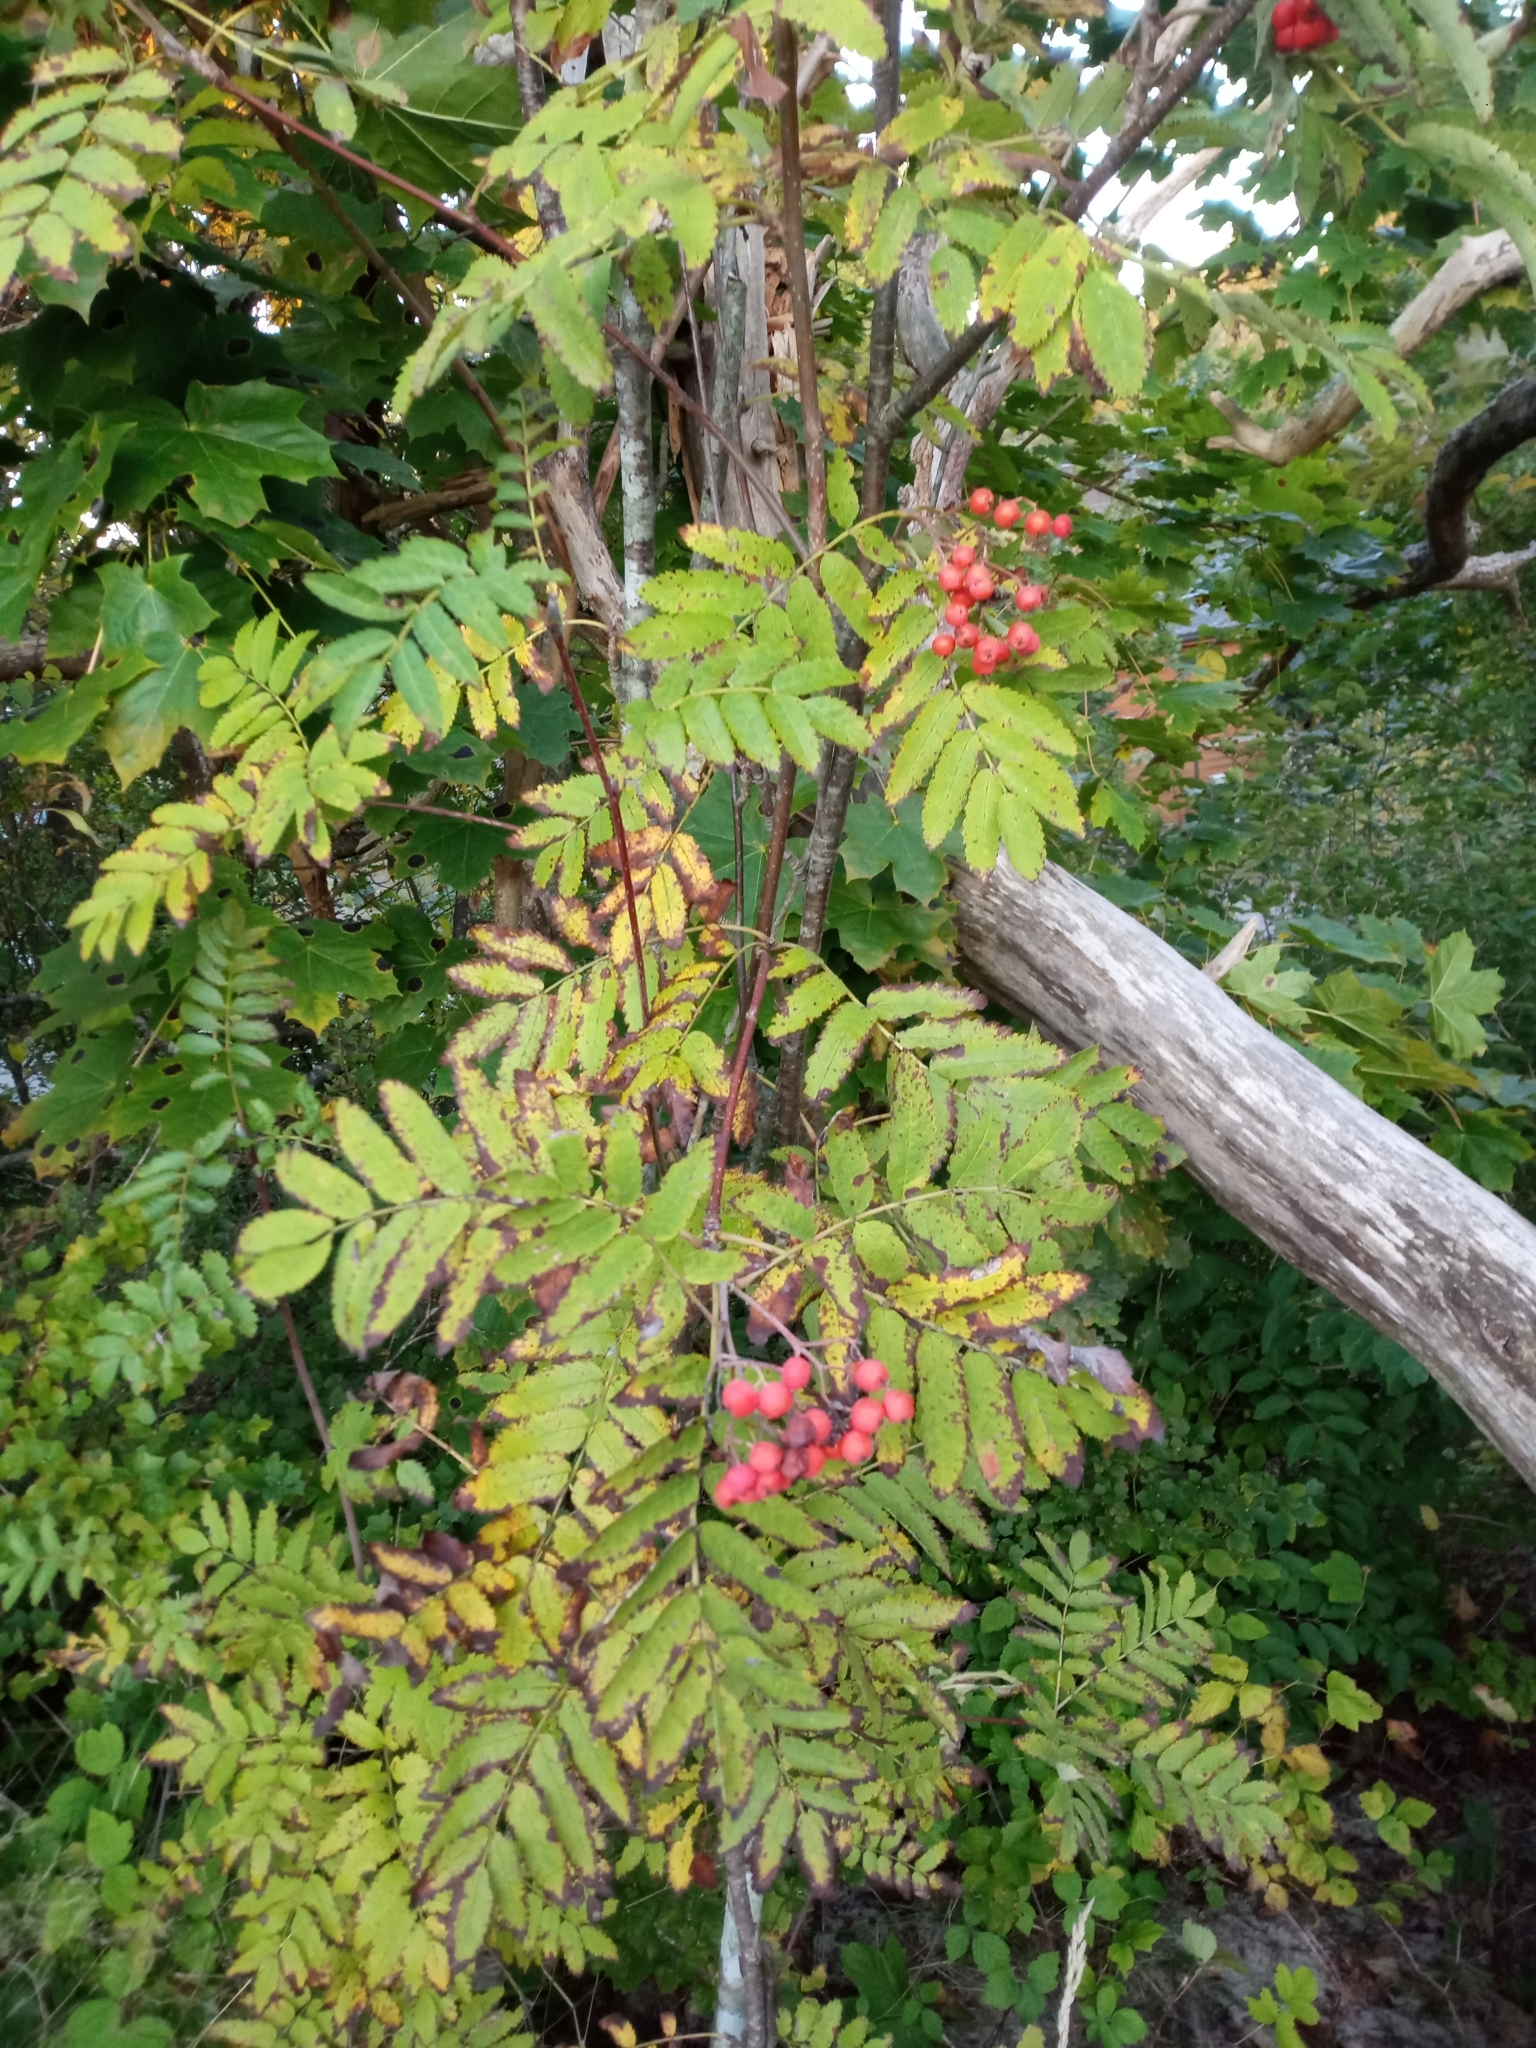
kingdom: Plantae
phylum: Tracheophyta
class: Magnoliopsida
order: Rosales
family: Rosaceae
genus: Sorbus
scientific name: Sorbus aucuparia
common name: Rowan
